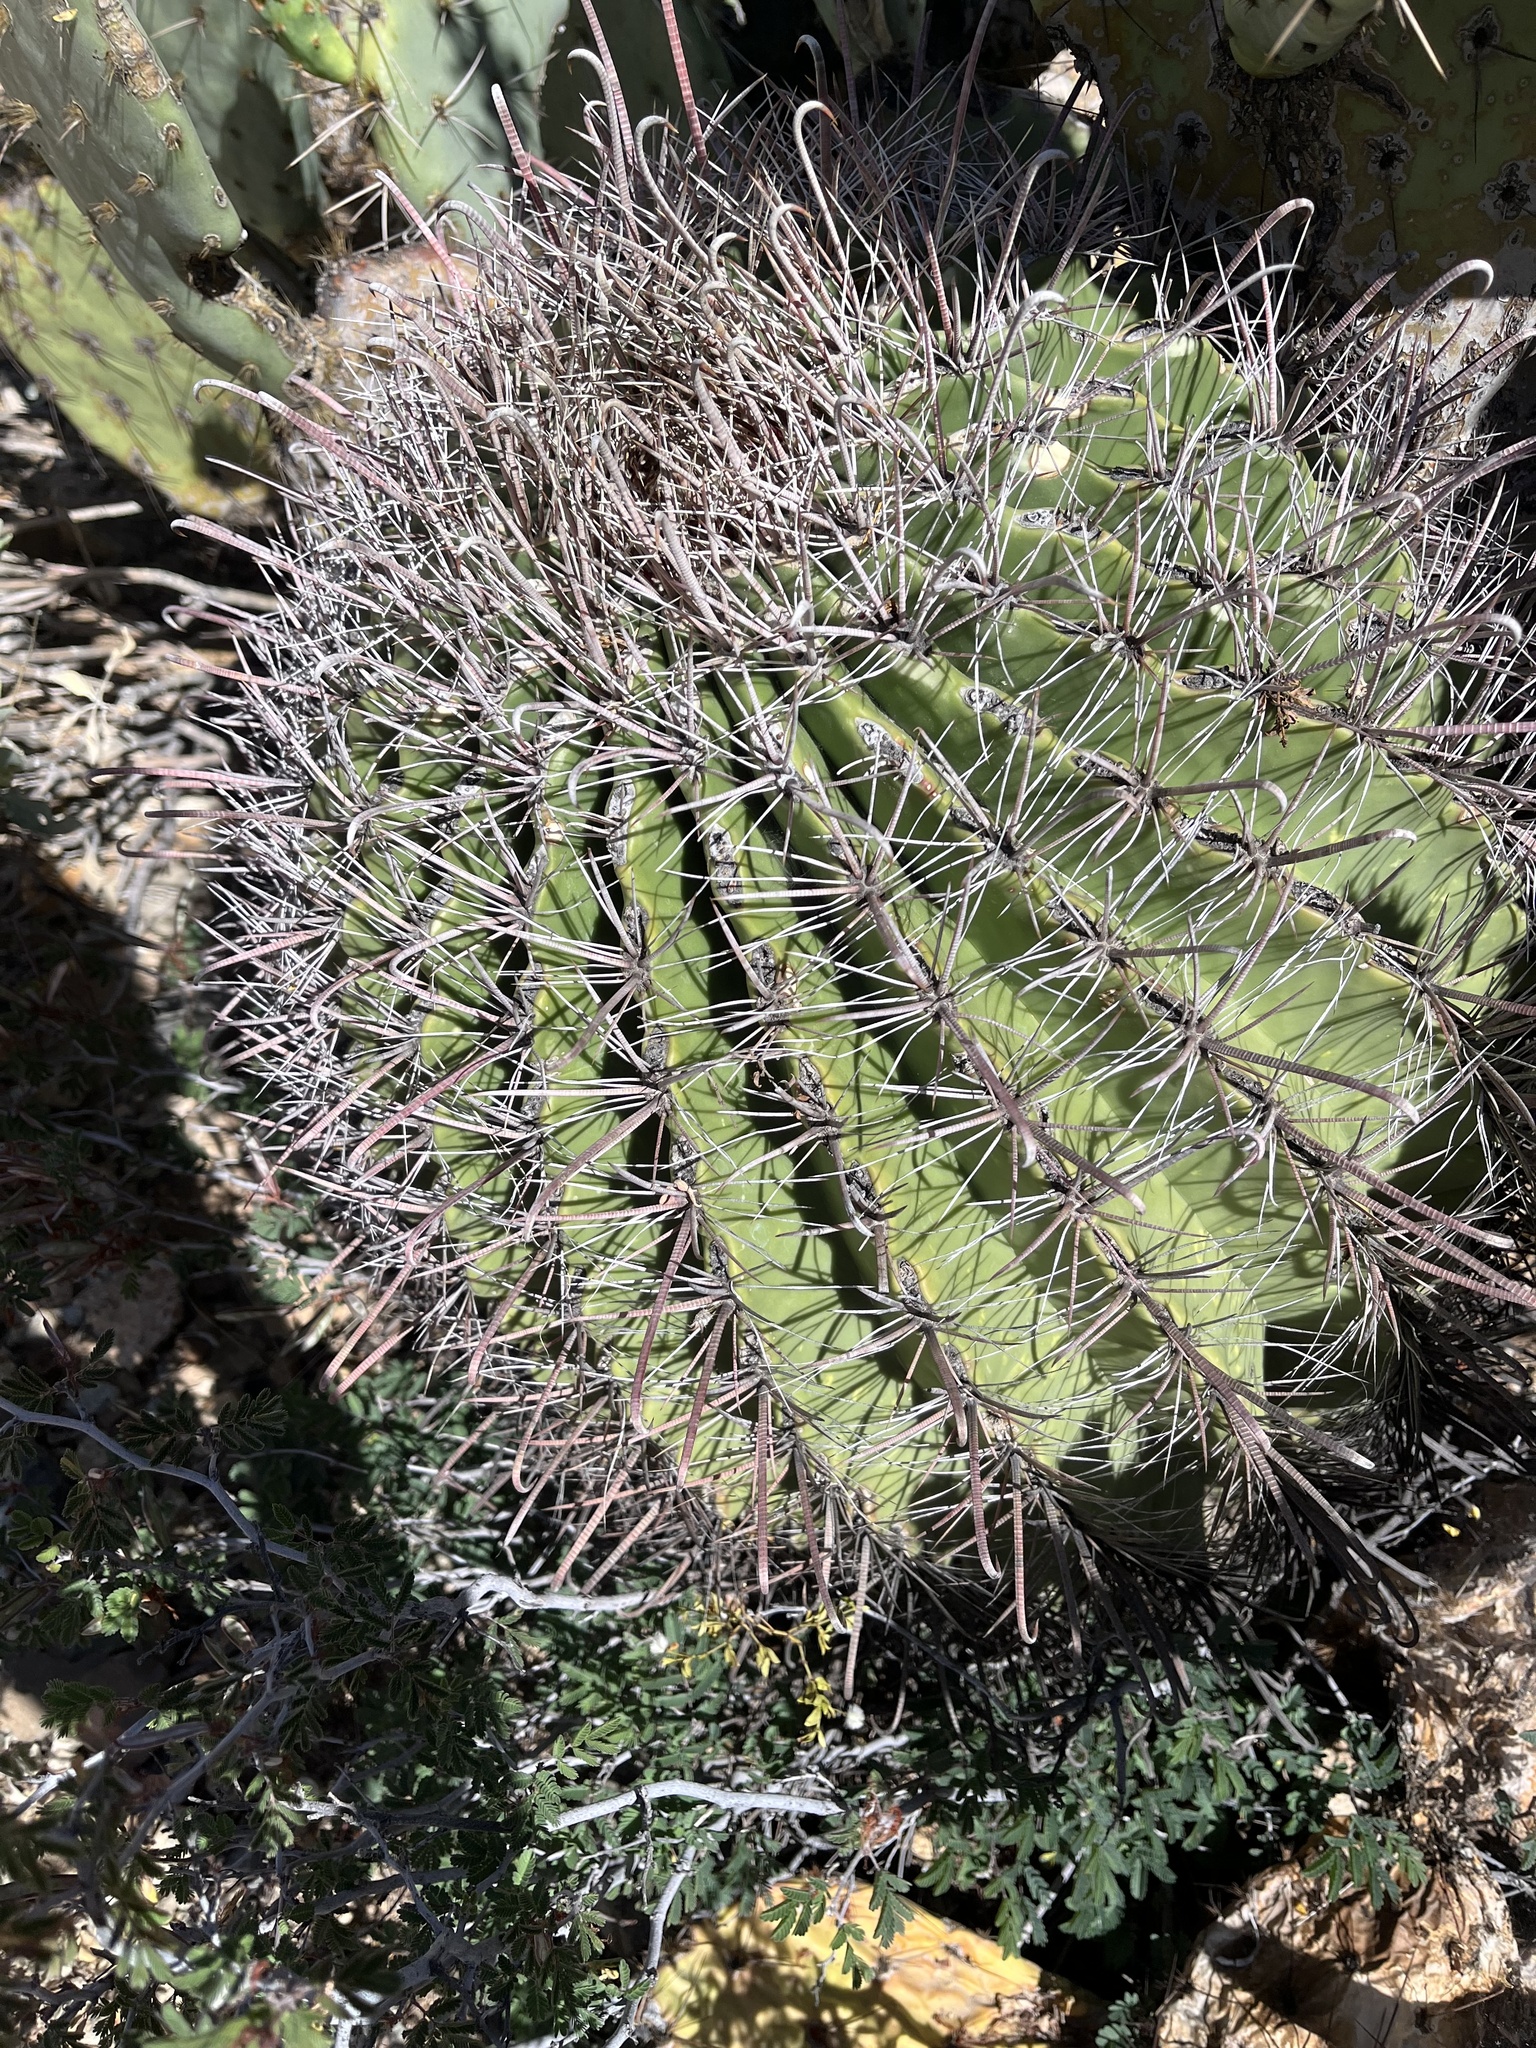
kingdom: Plantae
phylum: Tracheophyta
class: Magnoliopsida
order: Caryophyllales
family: Cactaceae
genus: Ferocactus
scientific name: Ferocactus wislizeni
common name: Candy barrel cactus
